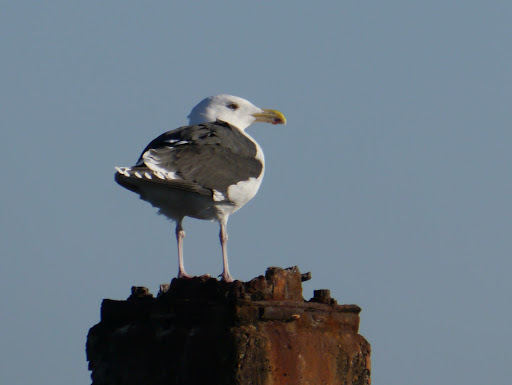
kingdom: Animalia
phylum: Chordata
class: Aves
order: Charadriiformes
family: Laridae
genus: Larus
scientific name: Larus marinus
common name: Great black-backed gull
